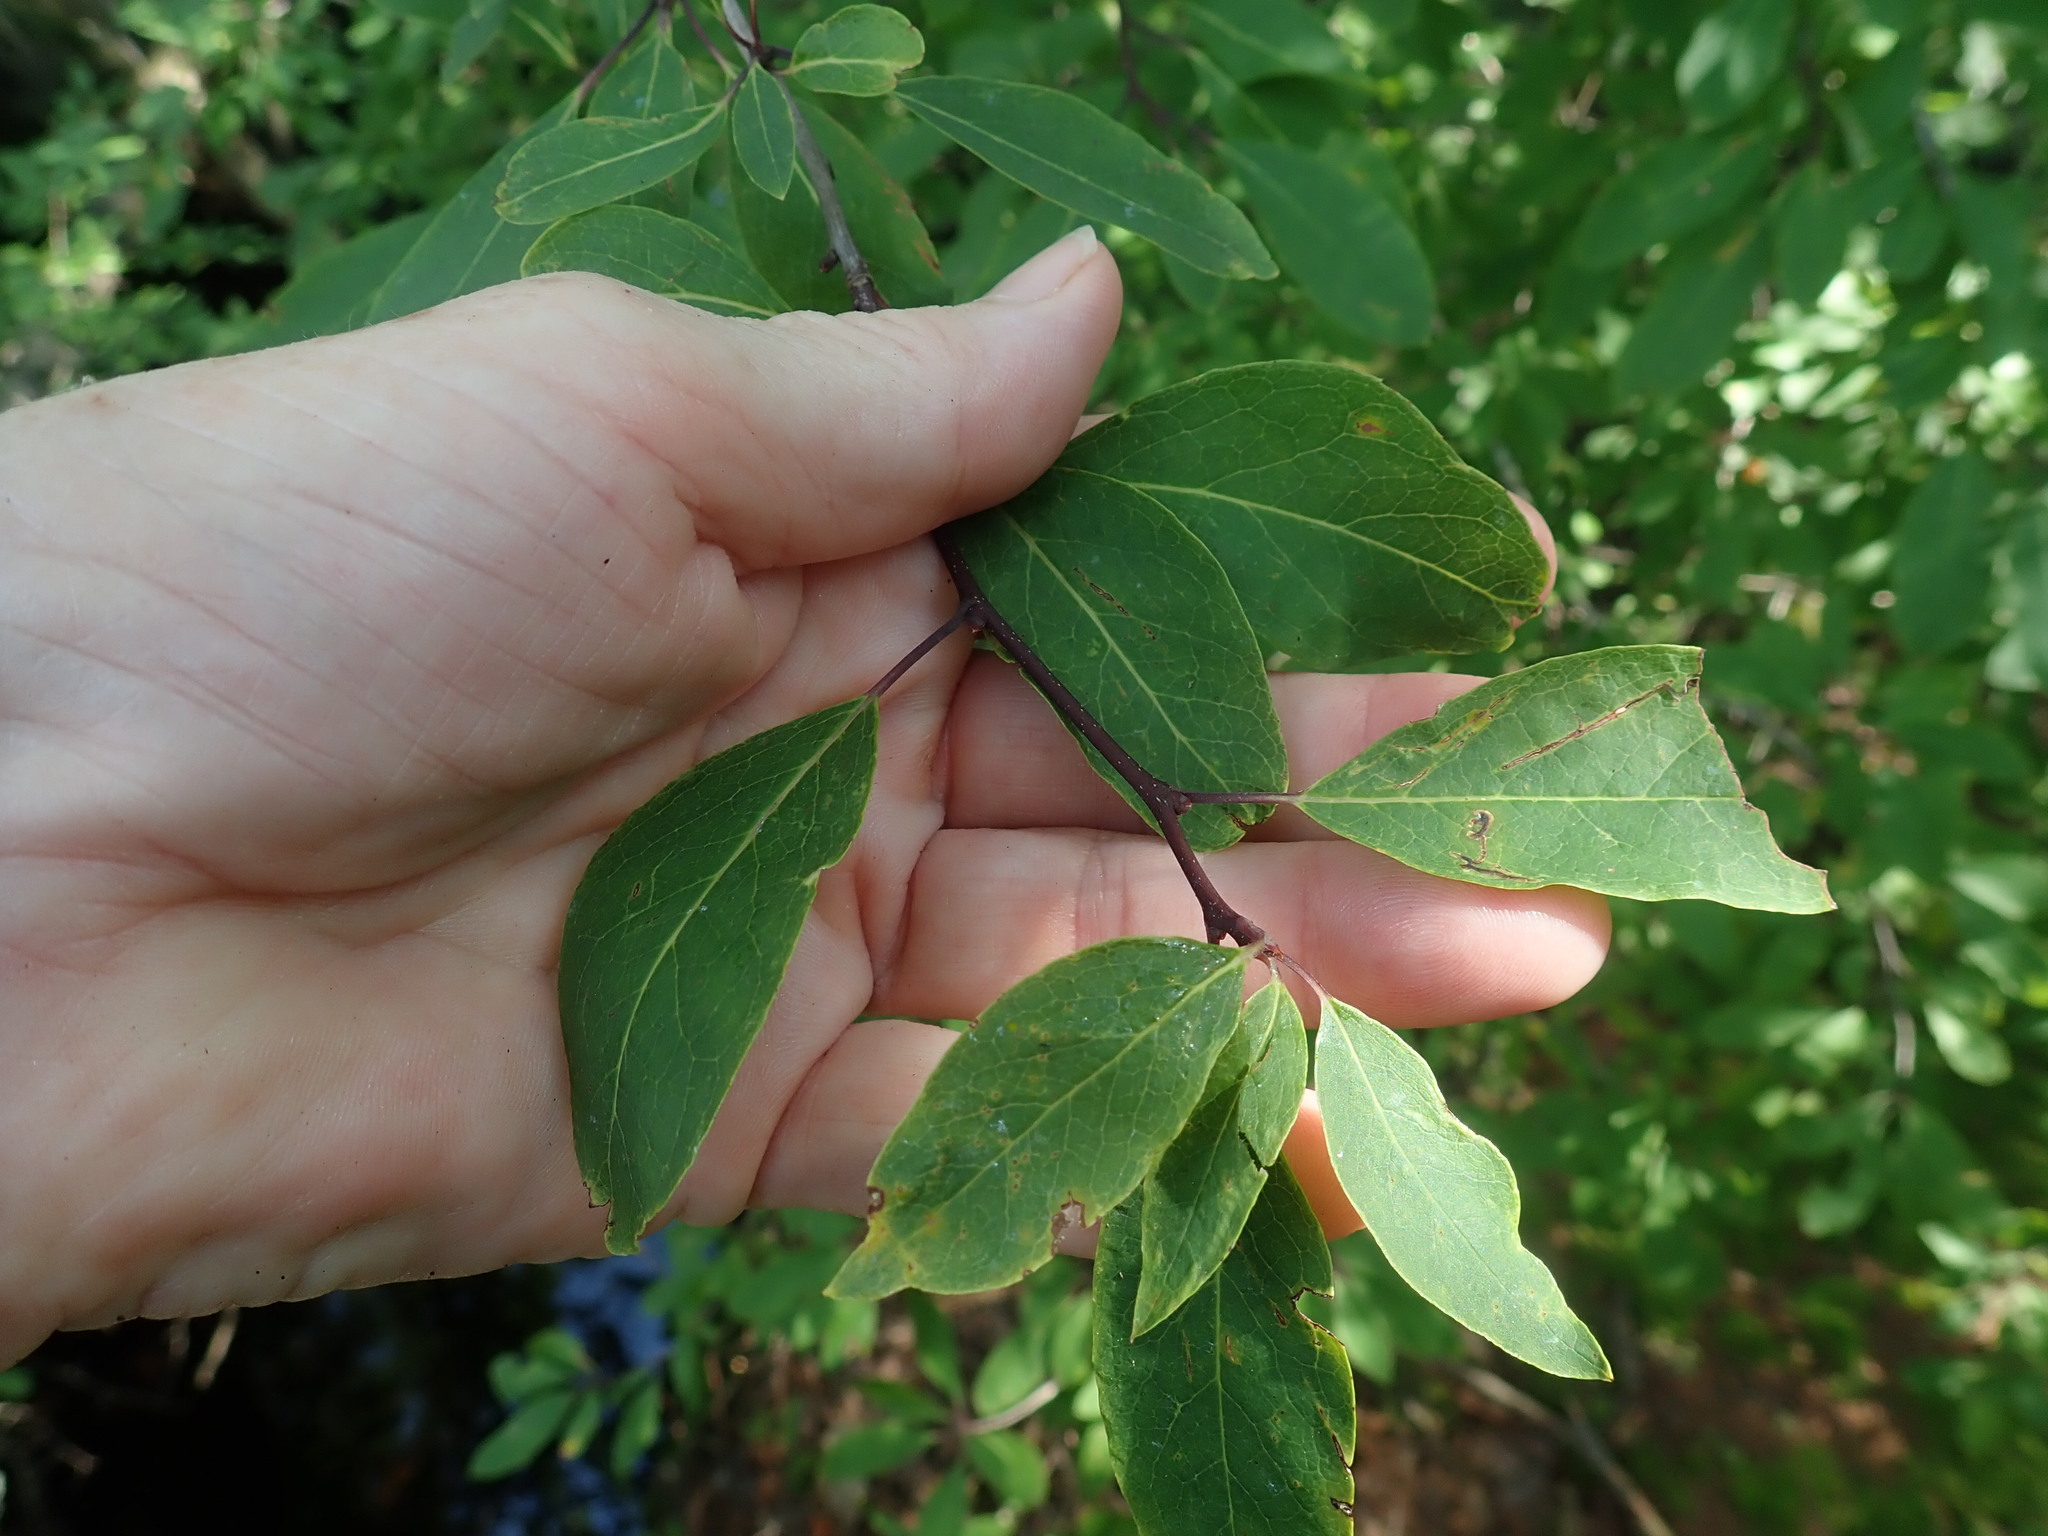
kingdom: Plantae
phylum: Tracheophyta
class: Magnoliopsida
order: Aquifoliales
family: Aquifoliaceae
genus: Ilex
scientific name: Ilex mucronata
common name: Catberry
